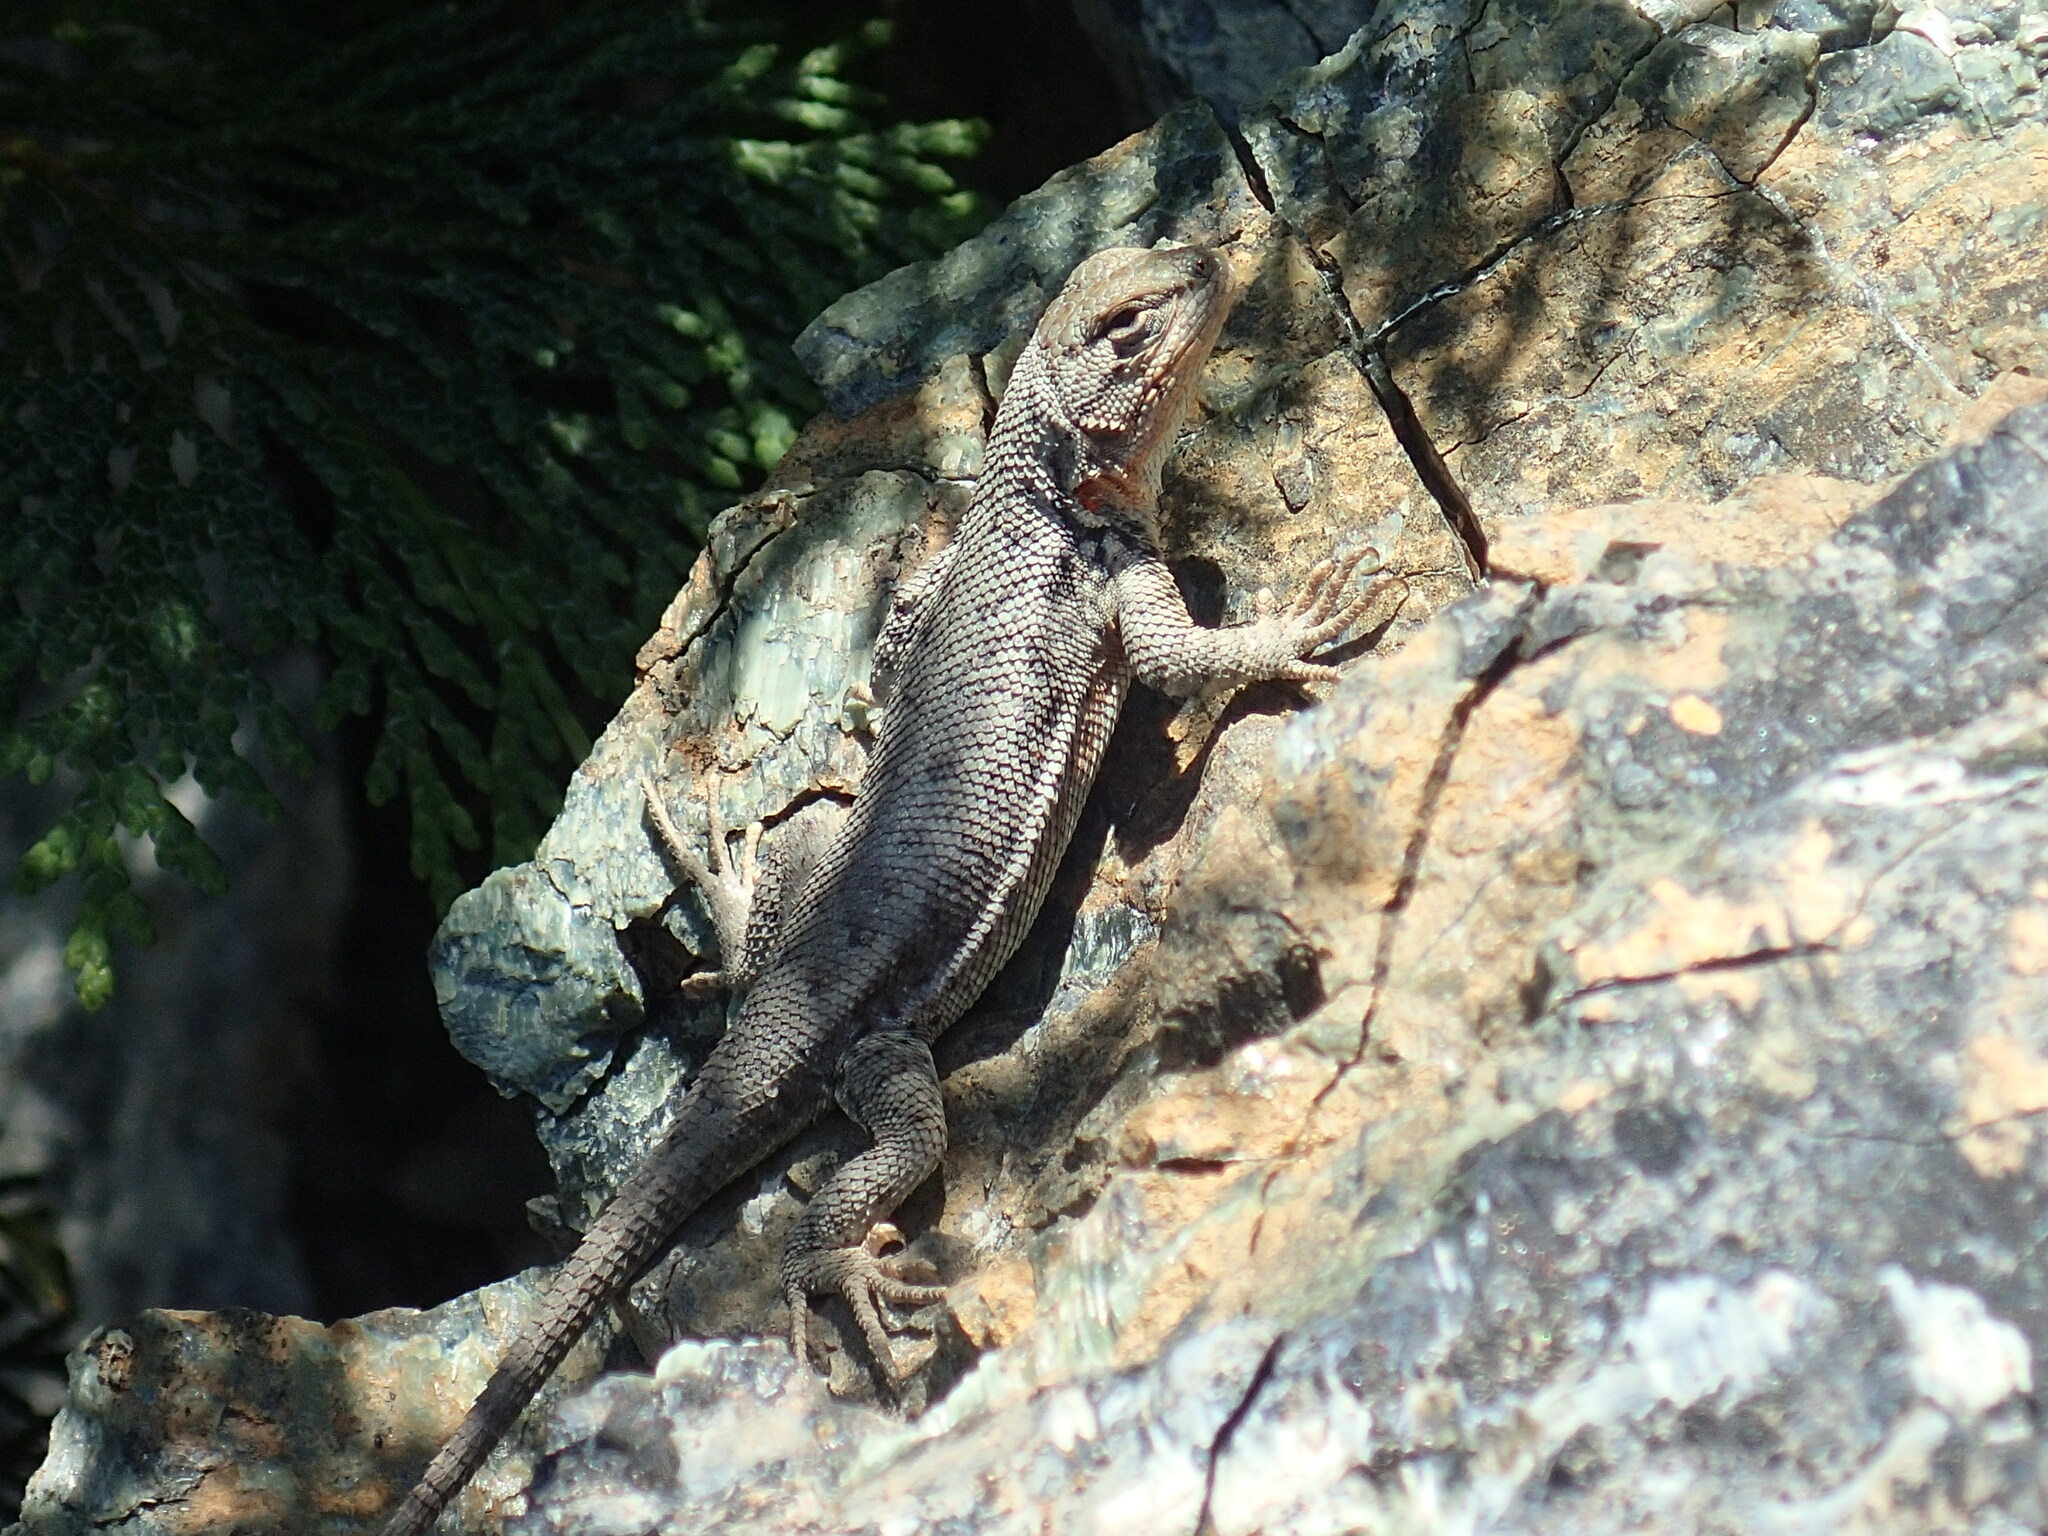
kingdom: Animalia
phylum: Chordata
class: Squamata
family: Phrynosomatidae
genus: Sceloporus
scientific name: Sceloporus graciosus
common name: Sagebrush lizard
